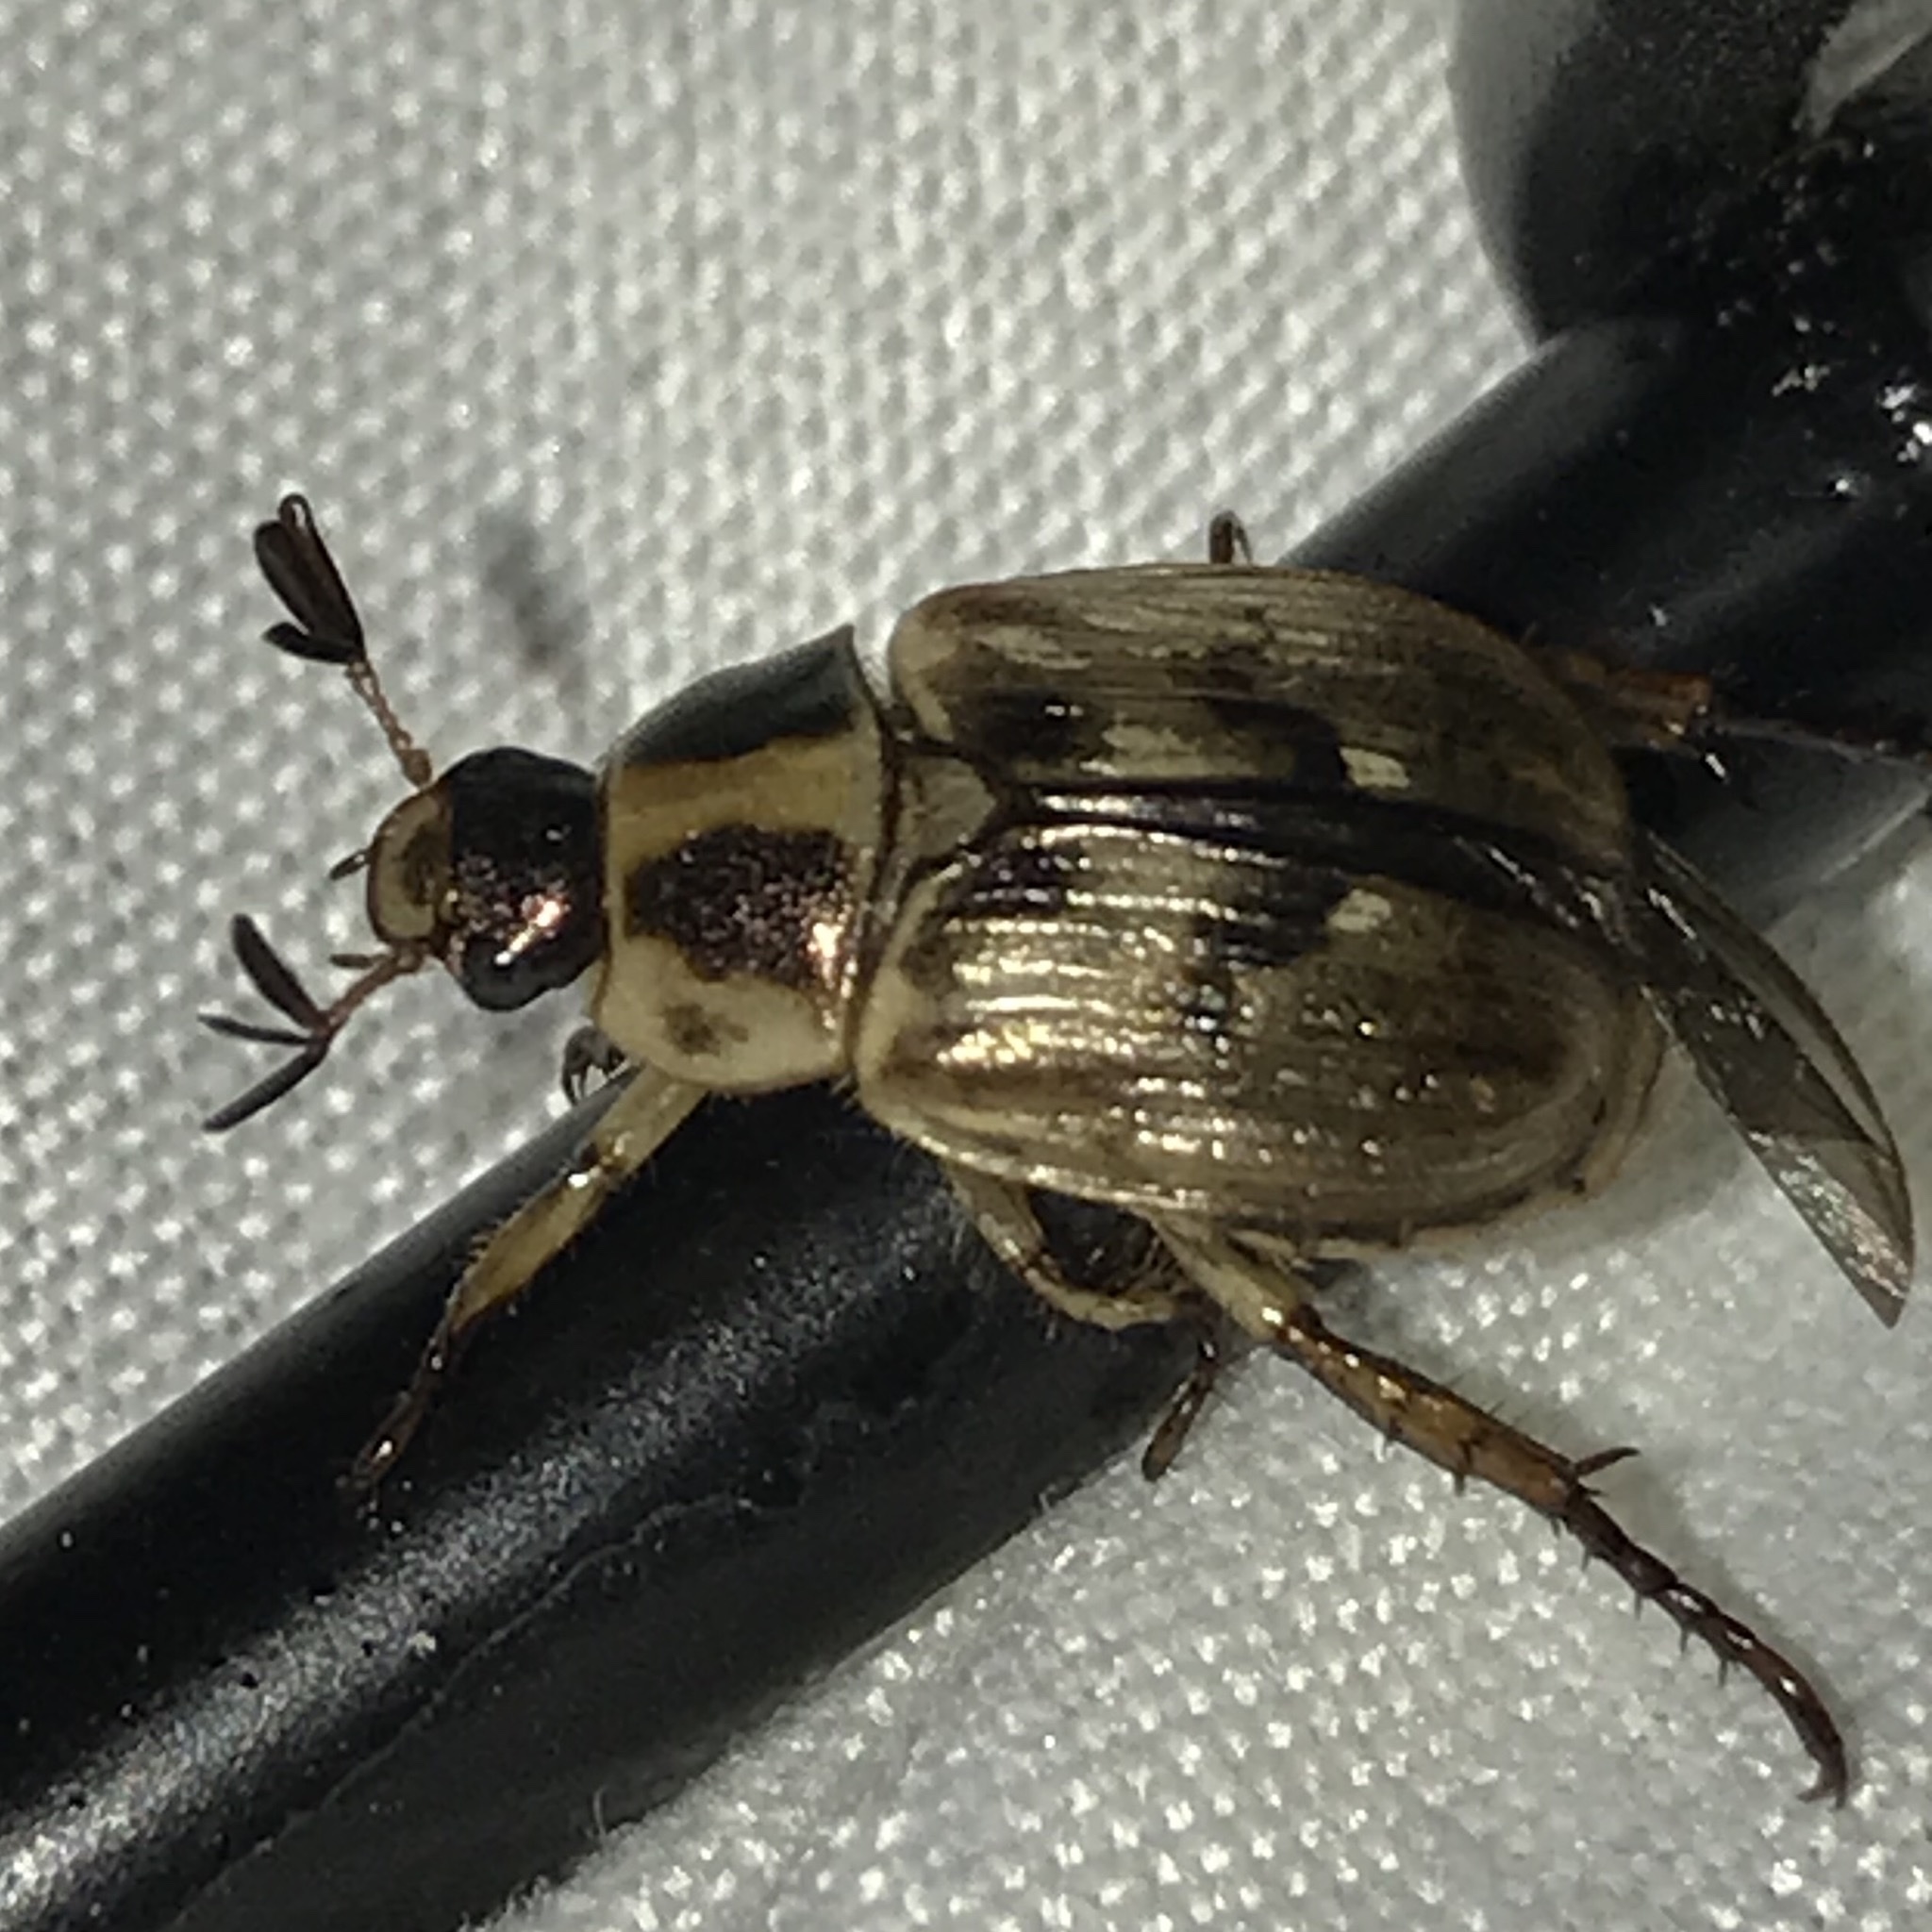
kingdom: Animalia
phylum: Arthropoda
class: Insecta
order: Coleoptera
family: Scarabaeidae
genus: Exomala
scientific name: Exomala orientalis
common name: Oriental beetle
